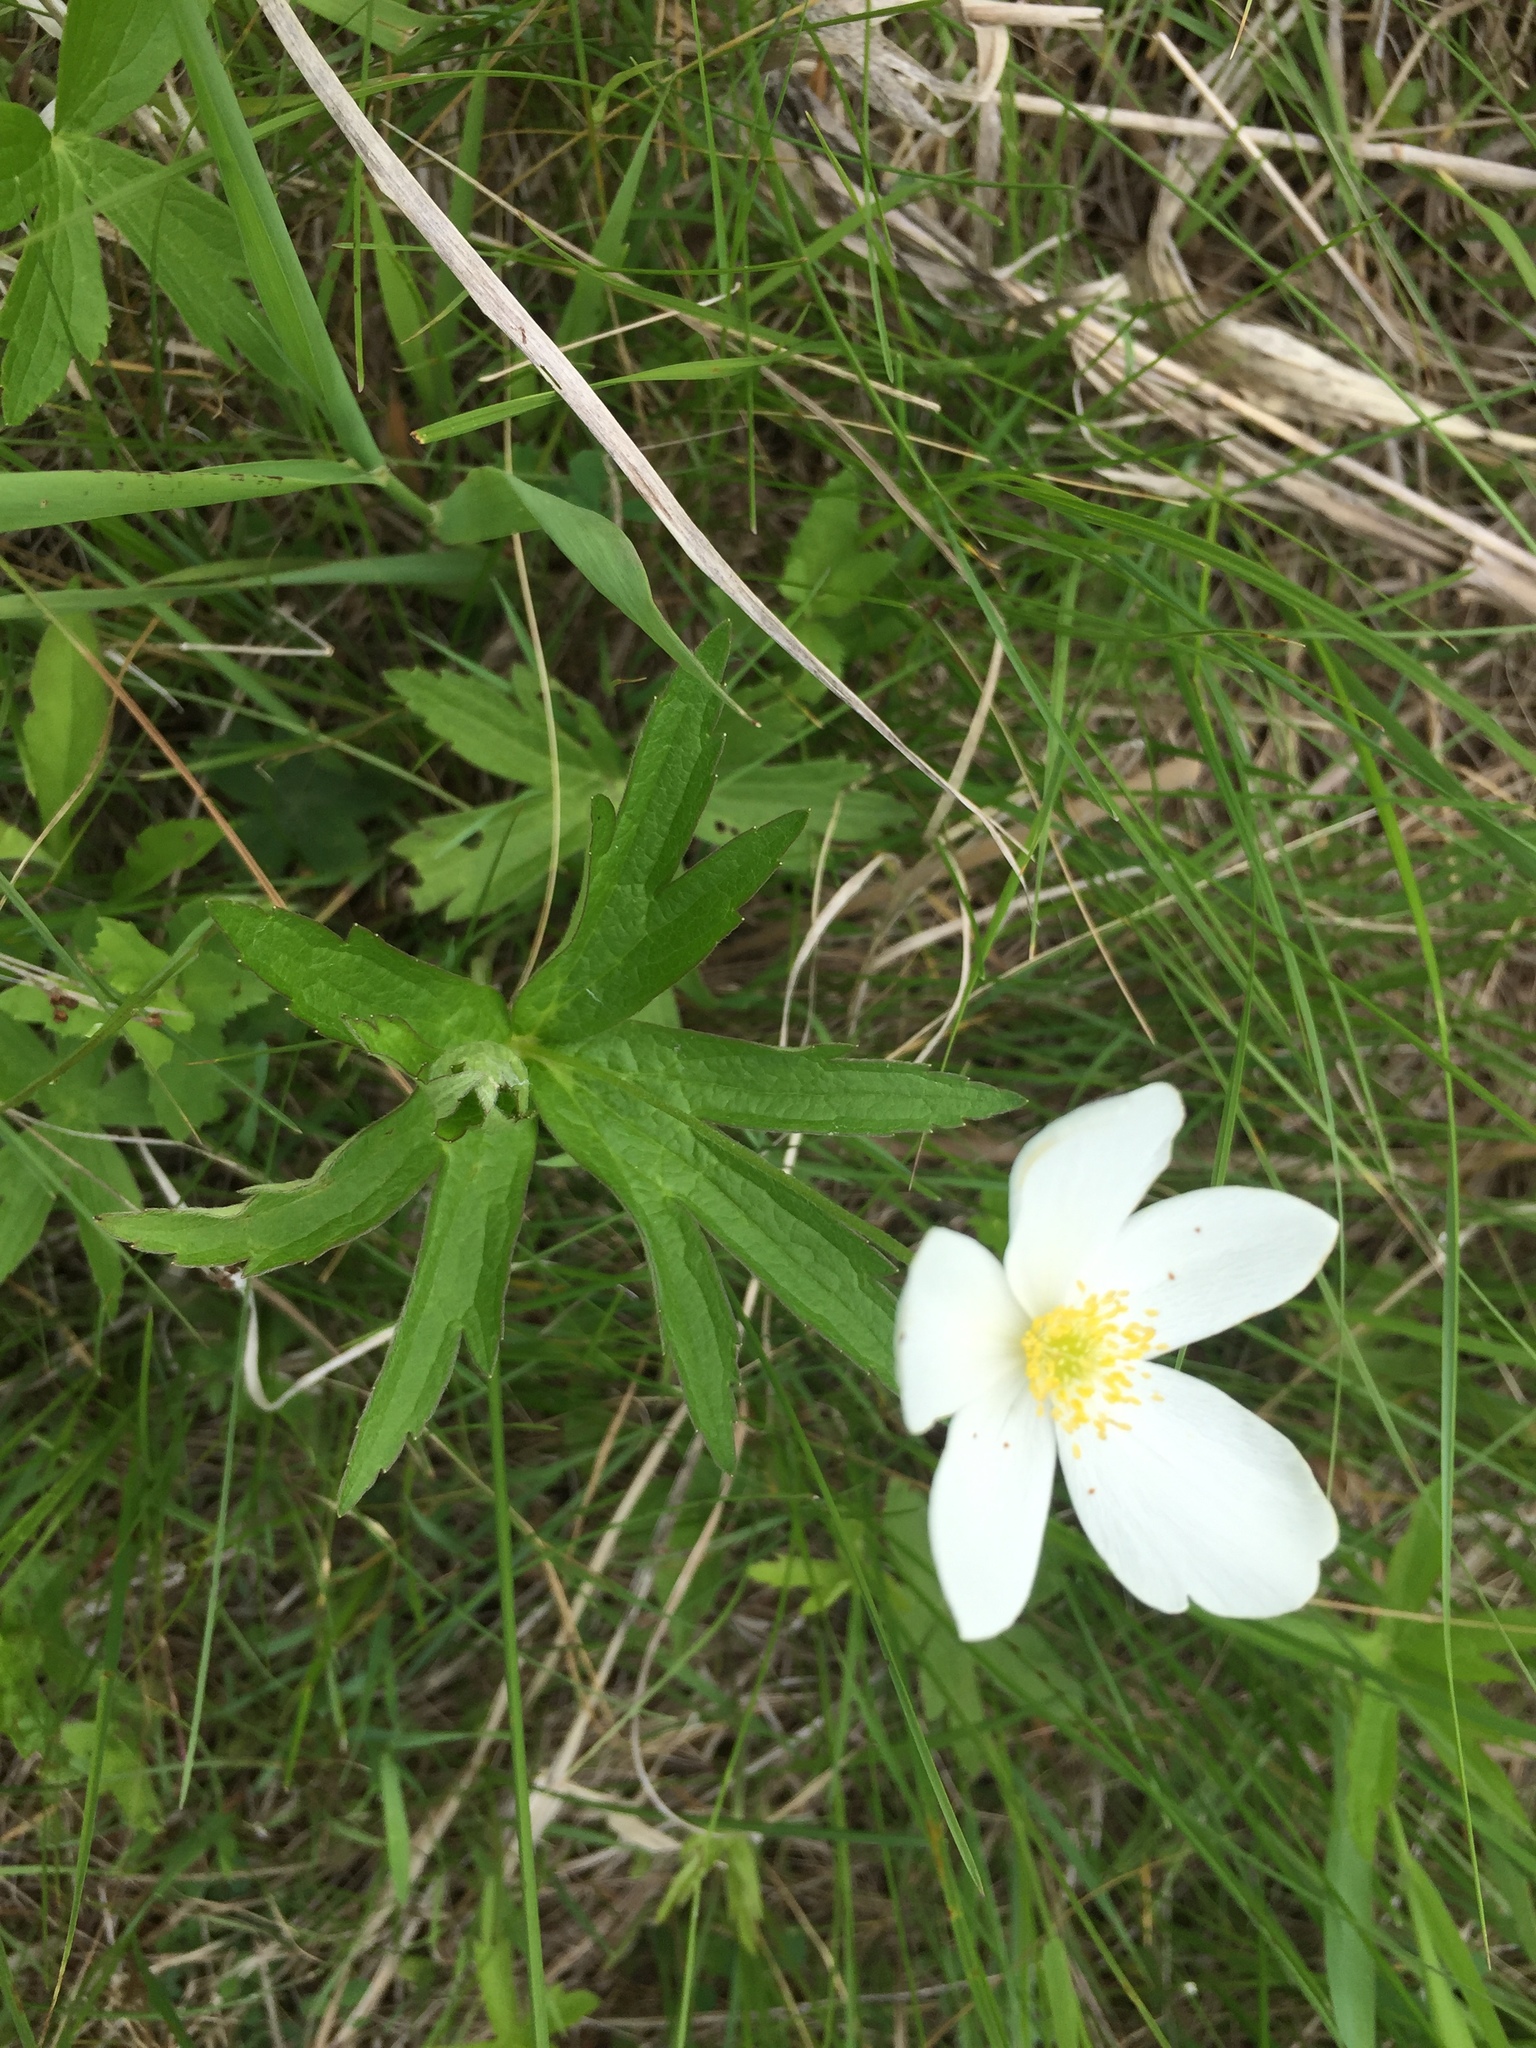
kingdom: Plantae
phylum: Tracheophyta
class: Magnoliopsida
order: Ranunculales
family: Ranunculaceae
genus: Anemonastrum
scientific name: Anemonastrum canadense
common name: Canada anemone
